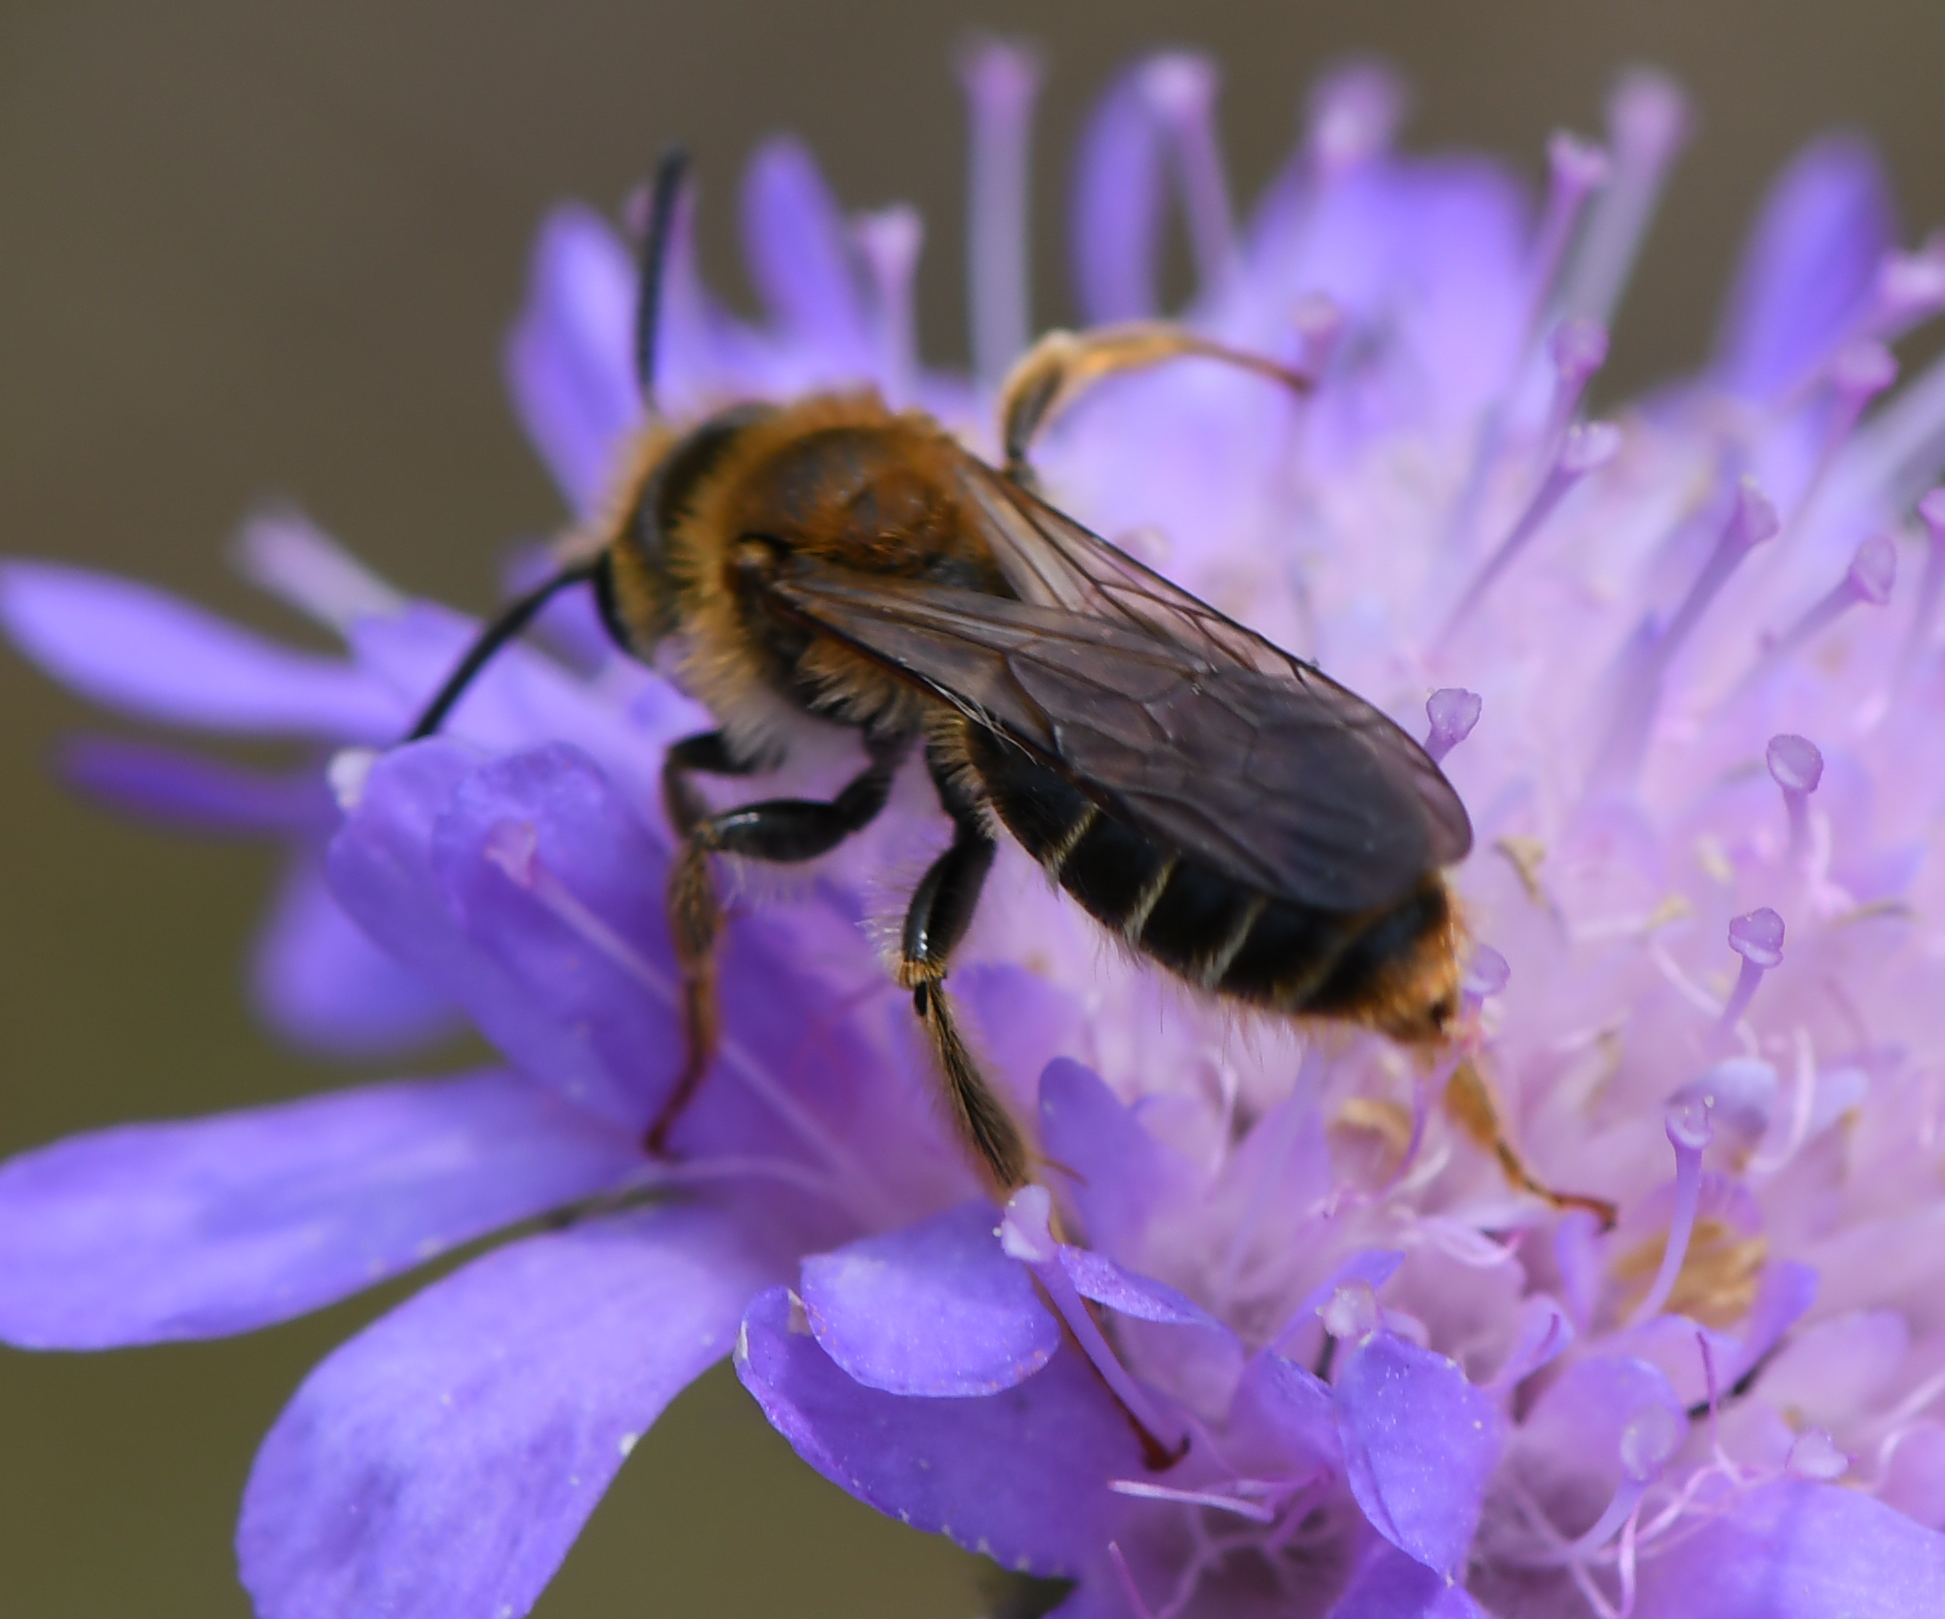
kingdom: Animalia
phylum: Arthropoda
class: Insecta
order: Hymenoptera
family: Andrenidae
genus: Andrena
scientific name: Andrena hattorfiana
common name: Large scabious mining bee
